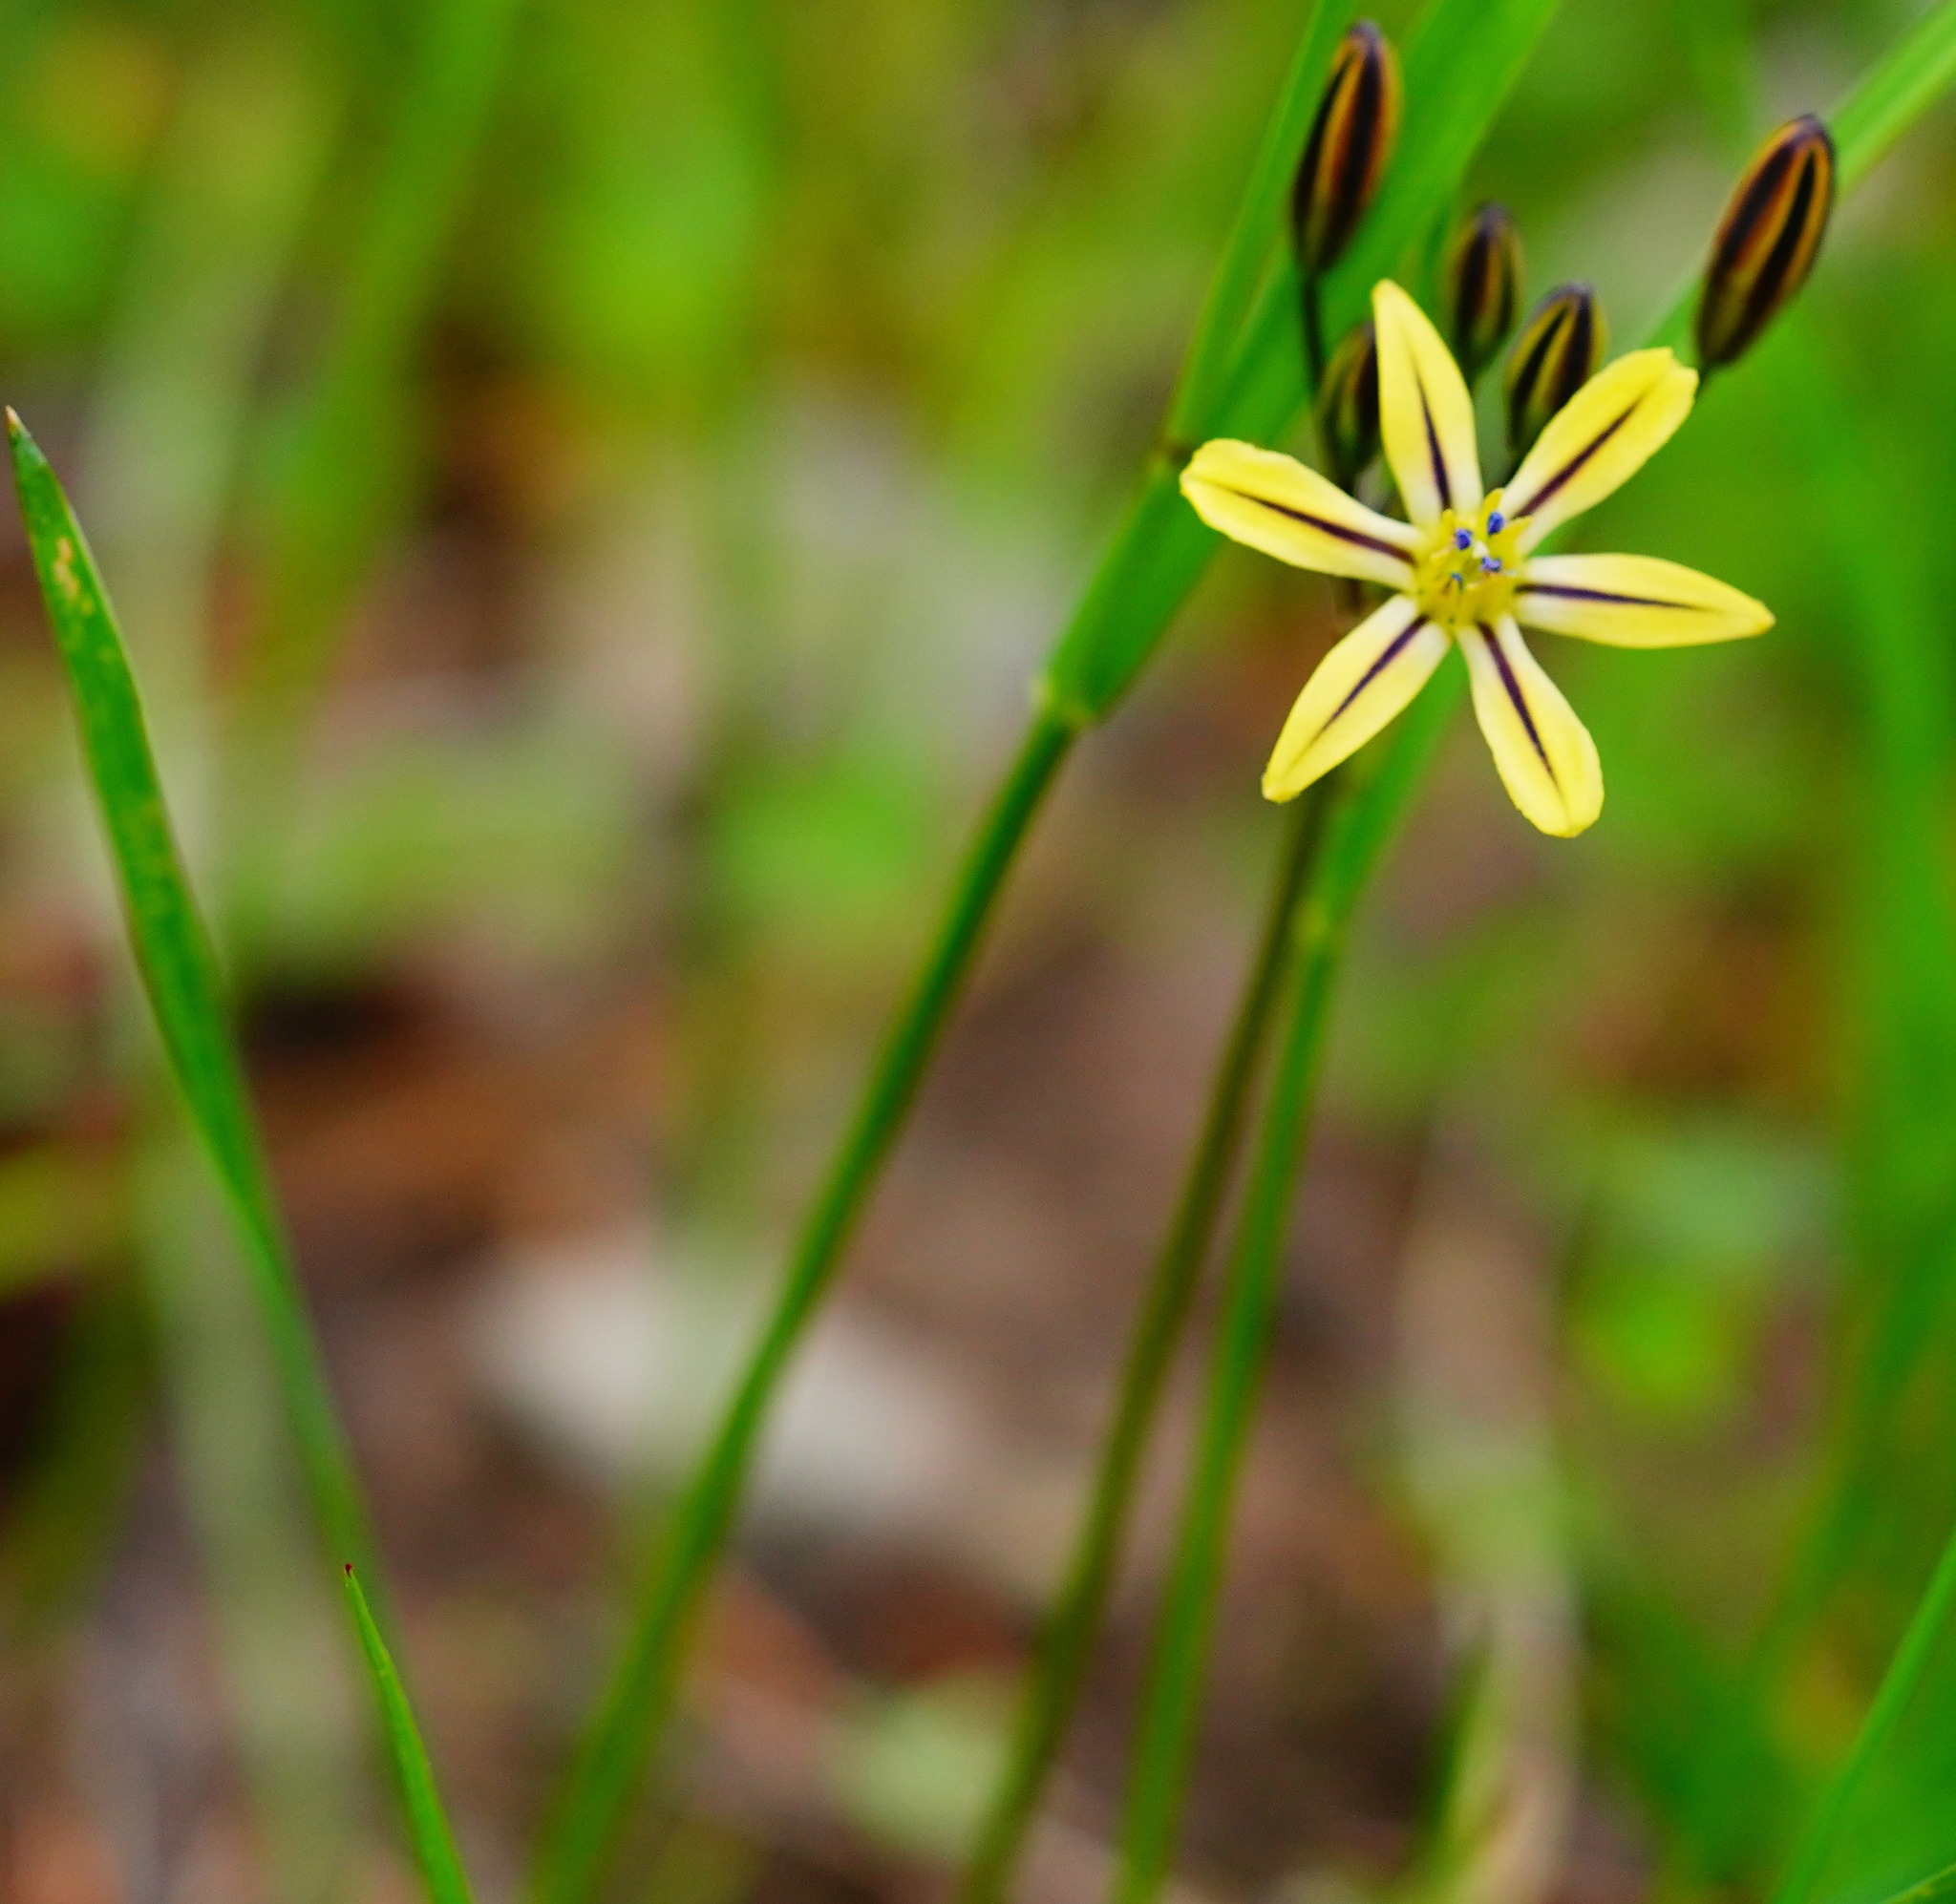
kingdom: Plantae
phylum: Tracheophyta
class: Liliopsida
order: Asparagales
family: Asparagaceae
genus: Triteleia
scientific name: Triteleia ixioides
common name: Yellow-brodiaea
